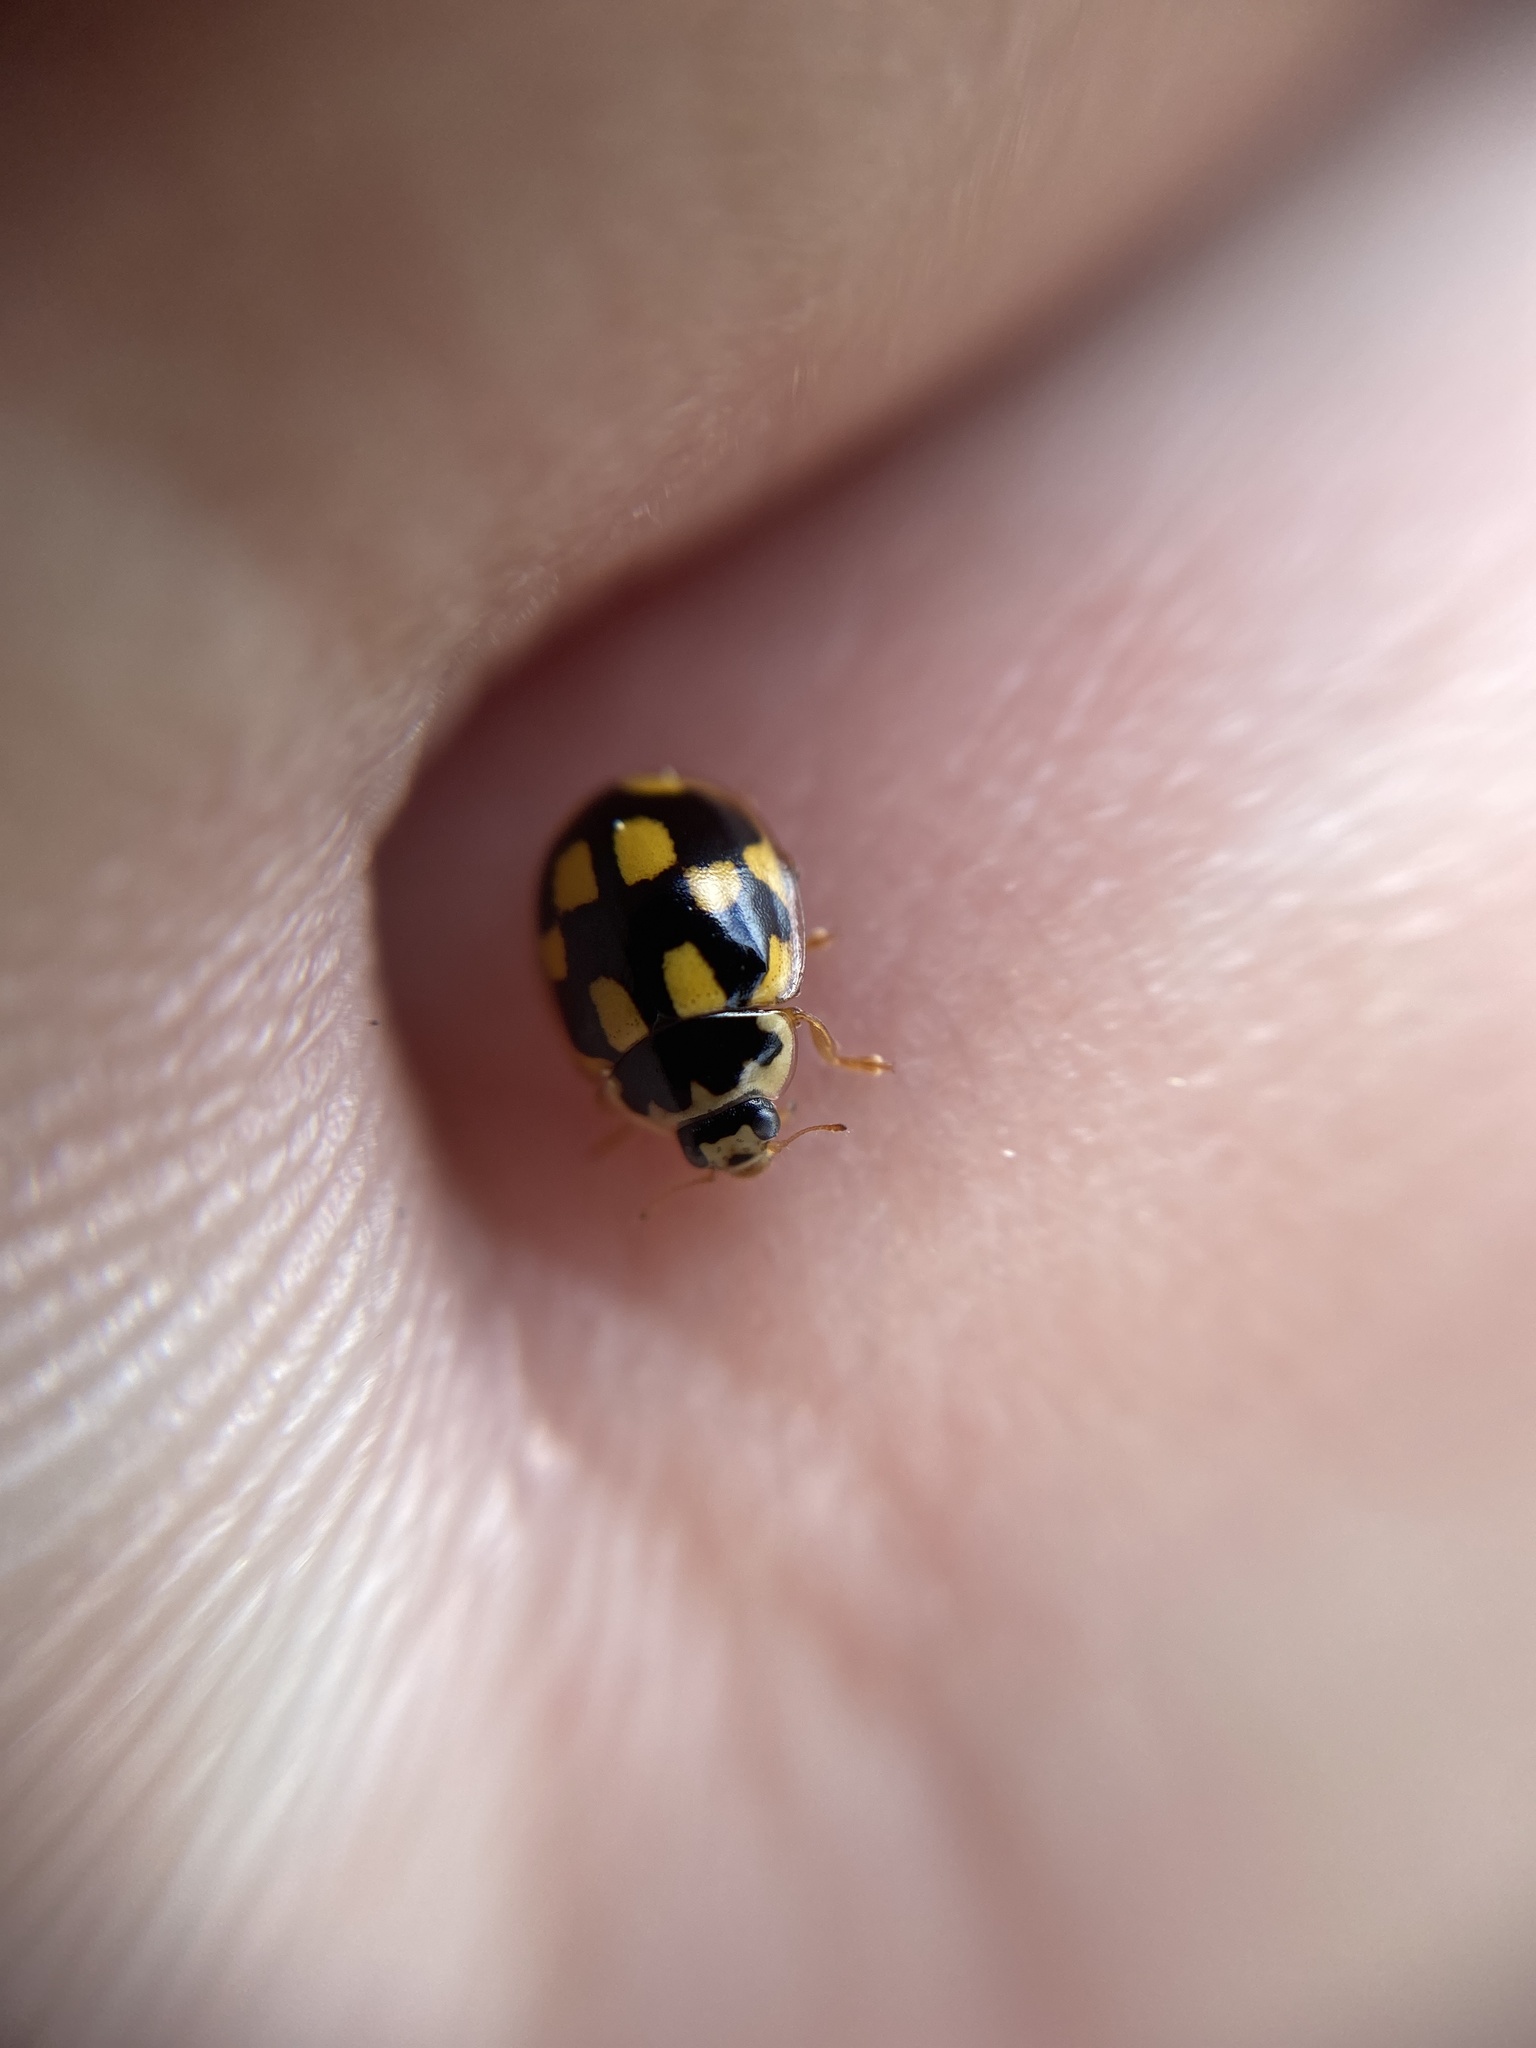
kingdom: Animalia
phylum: Arthropoda
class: Insecta
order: Coleoptera
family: Coccinellidae
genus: Propylaea
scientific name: Propylaea quatuordecimpunctata
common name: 14-spotted ladybird beetle
